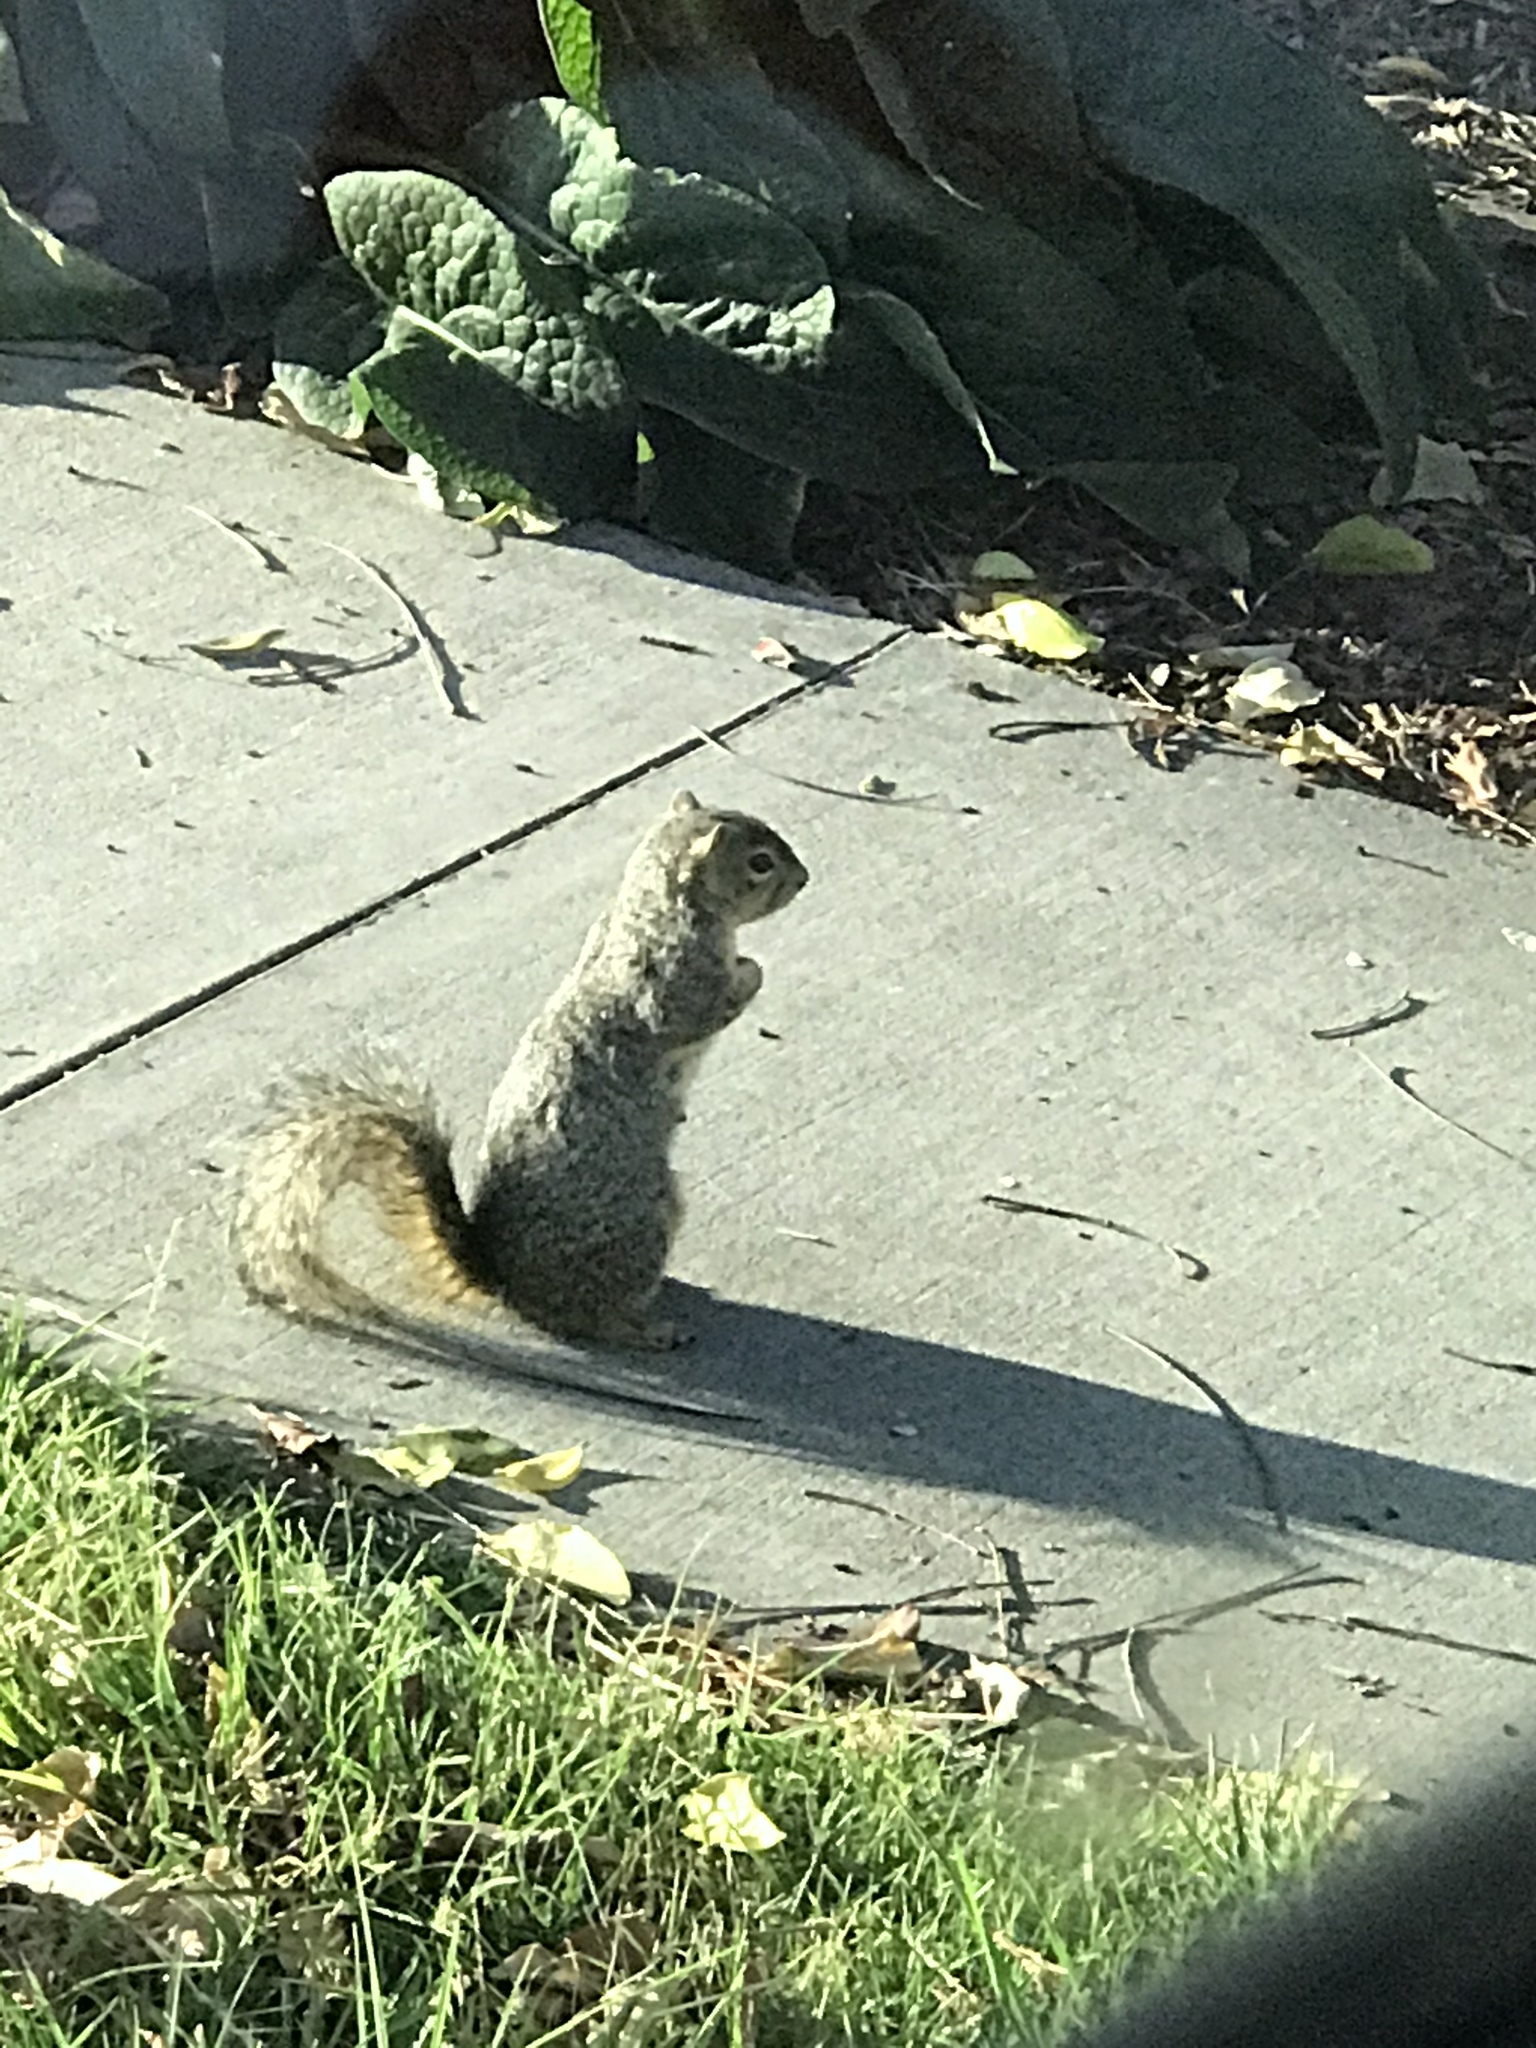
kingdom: Animalia
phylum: Chordata
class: Mammalia
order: Rodentia
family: Sciuridae
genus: Sciurus
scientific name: Sciurus niger
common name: Fox squirrel
